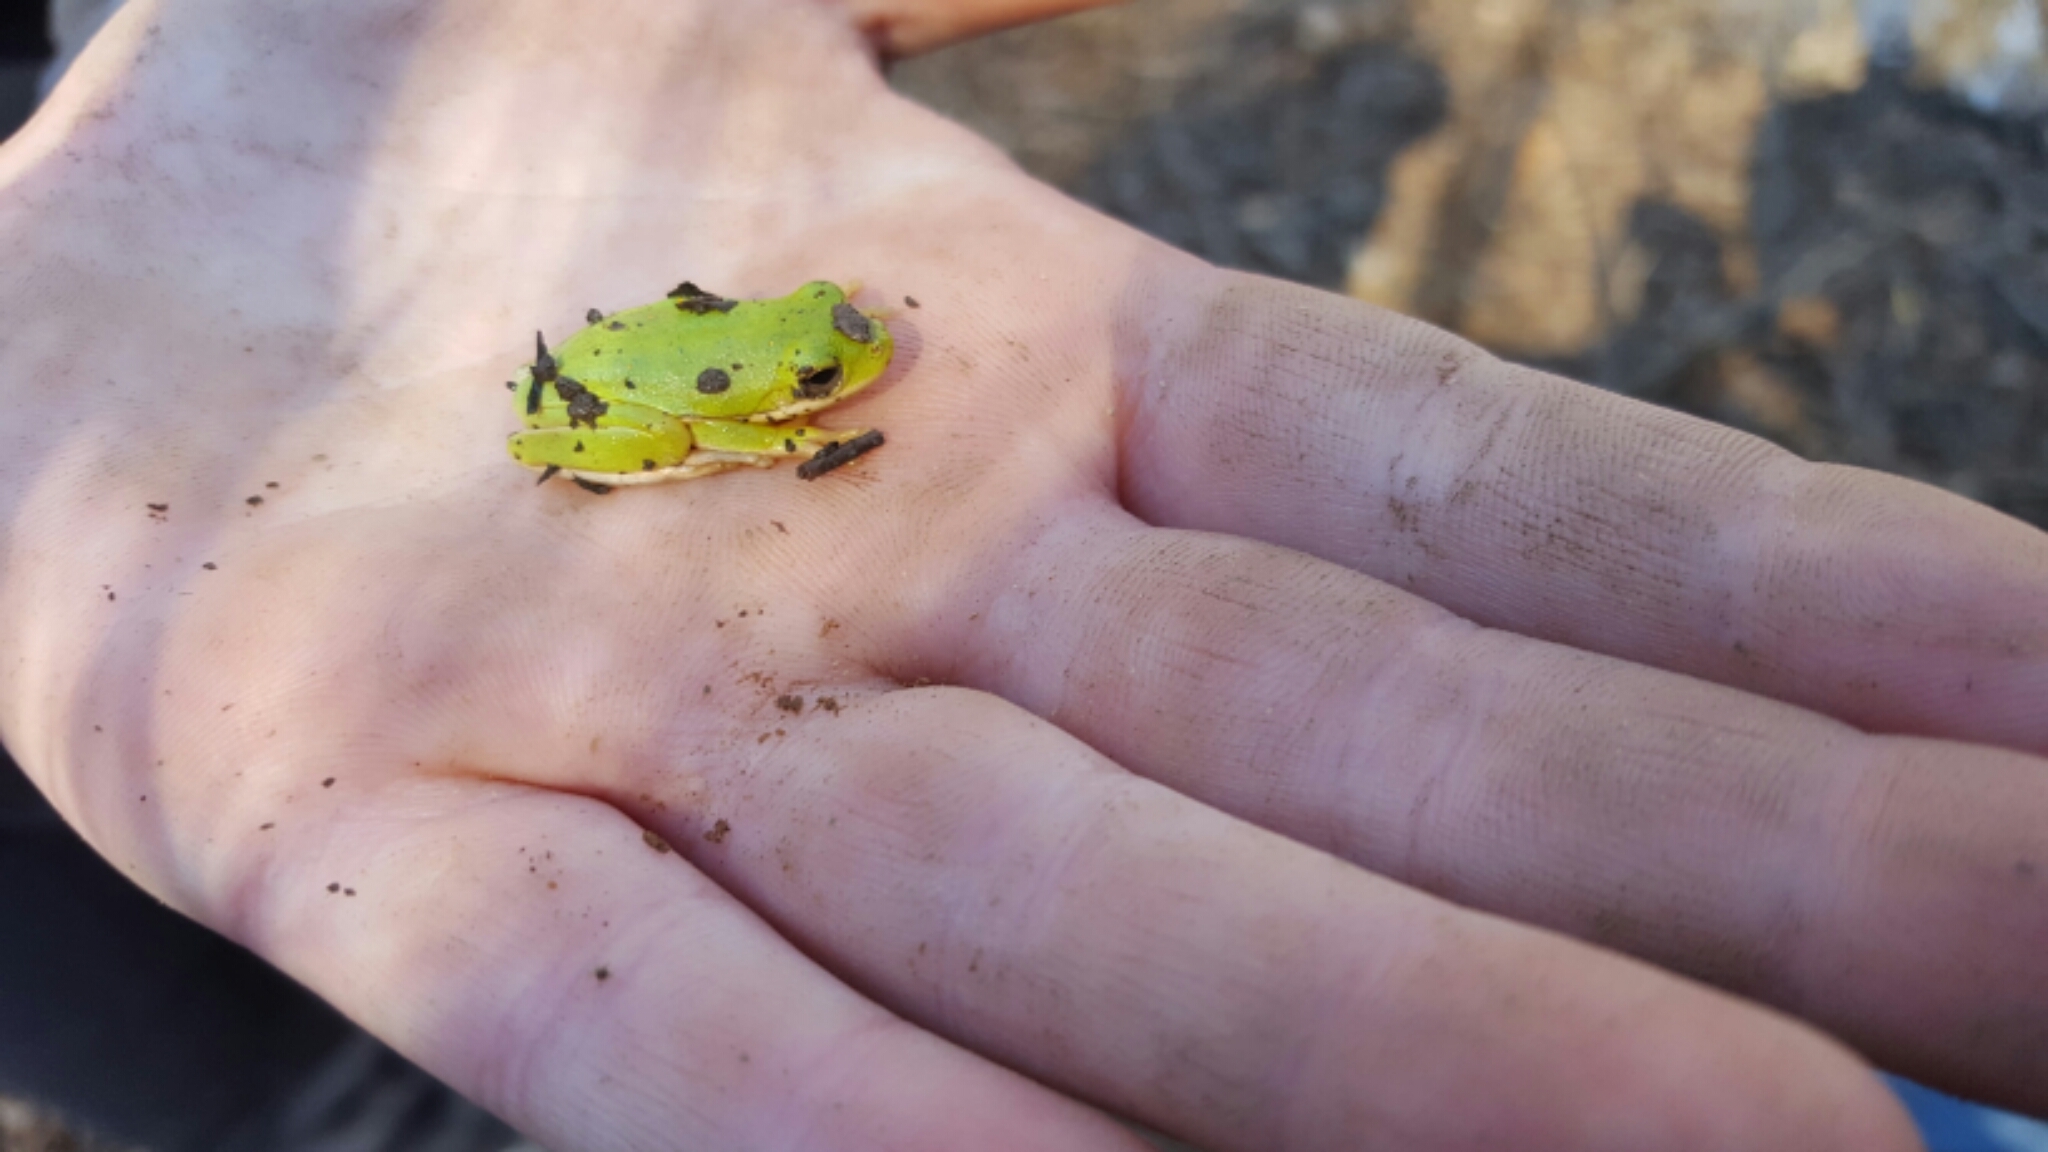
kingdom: Animalia
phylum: Chordata
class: Amphibia
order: Anura
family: Hylidae
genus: Dryophytes
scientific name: Dryophytes cinereus
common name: Green treefrog
